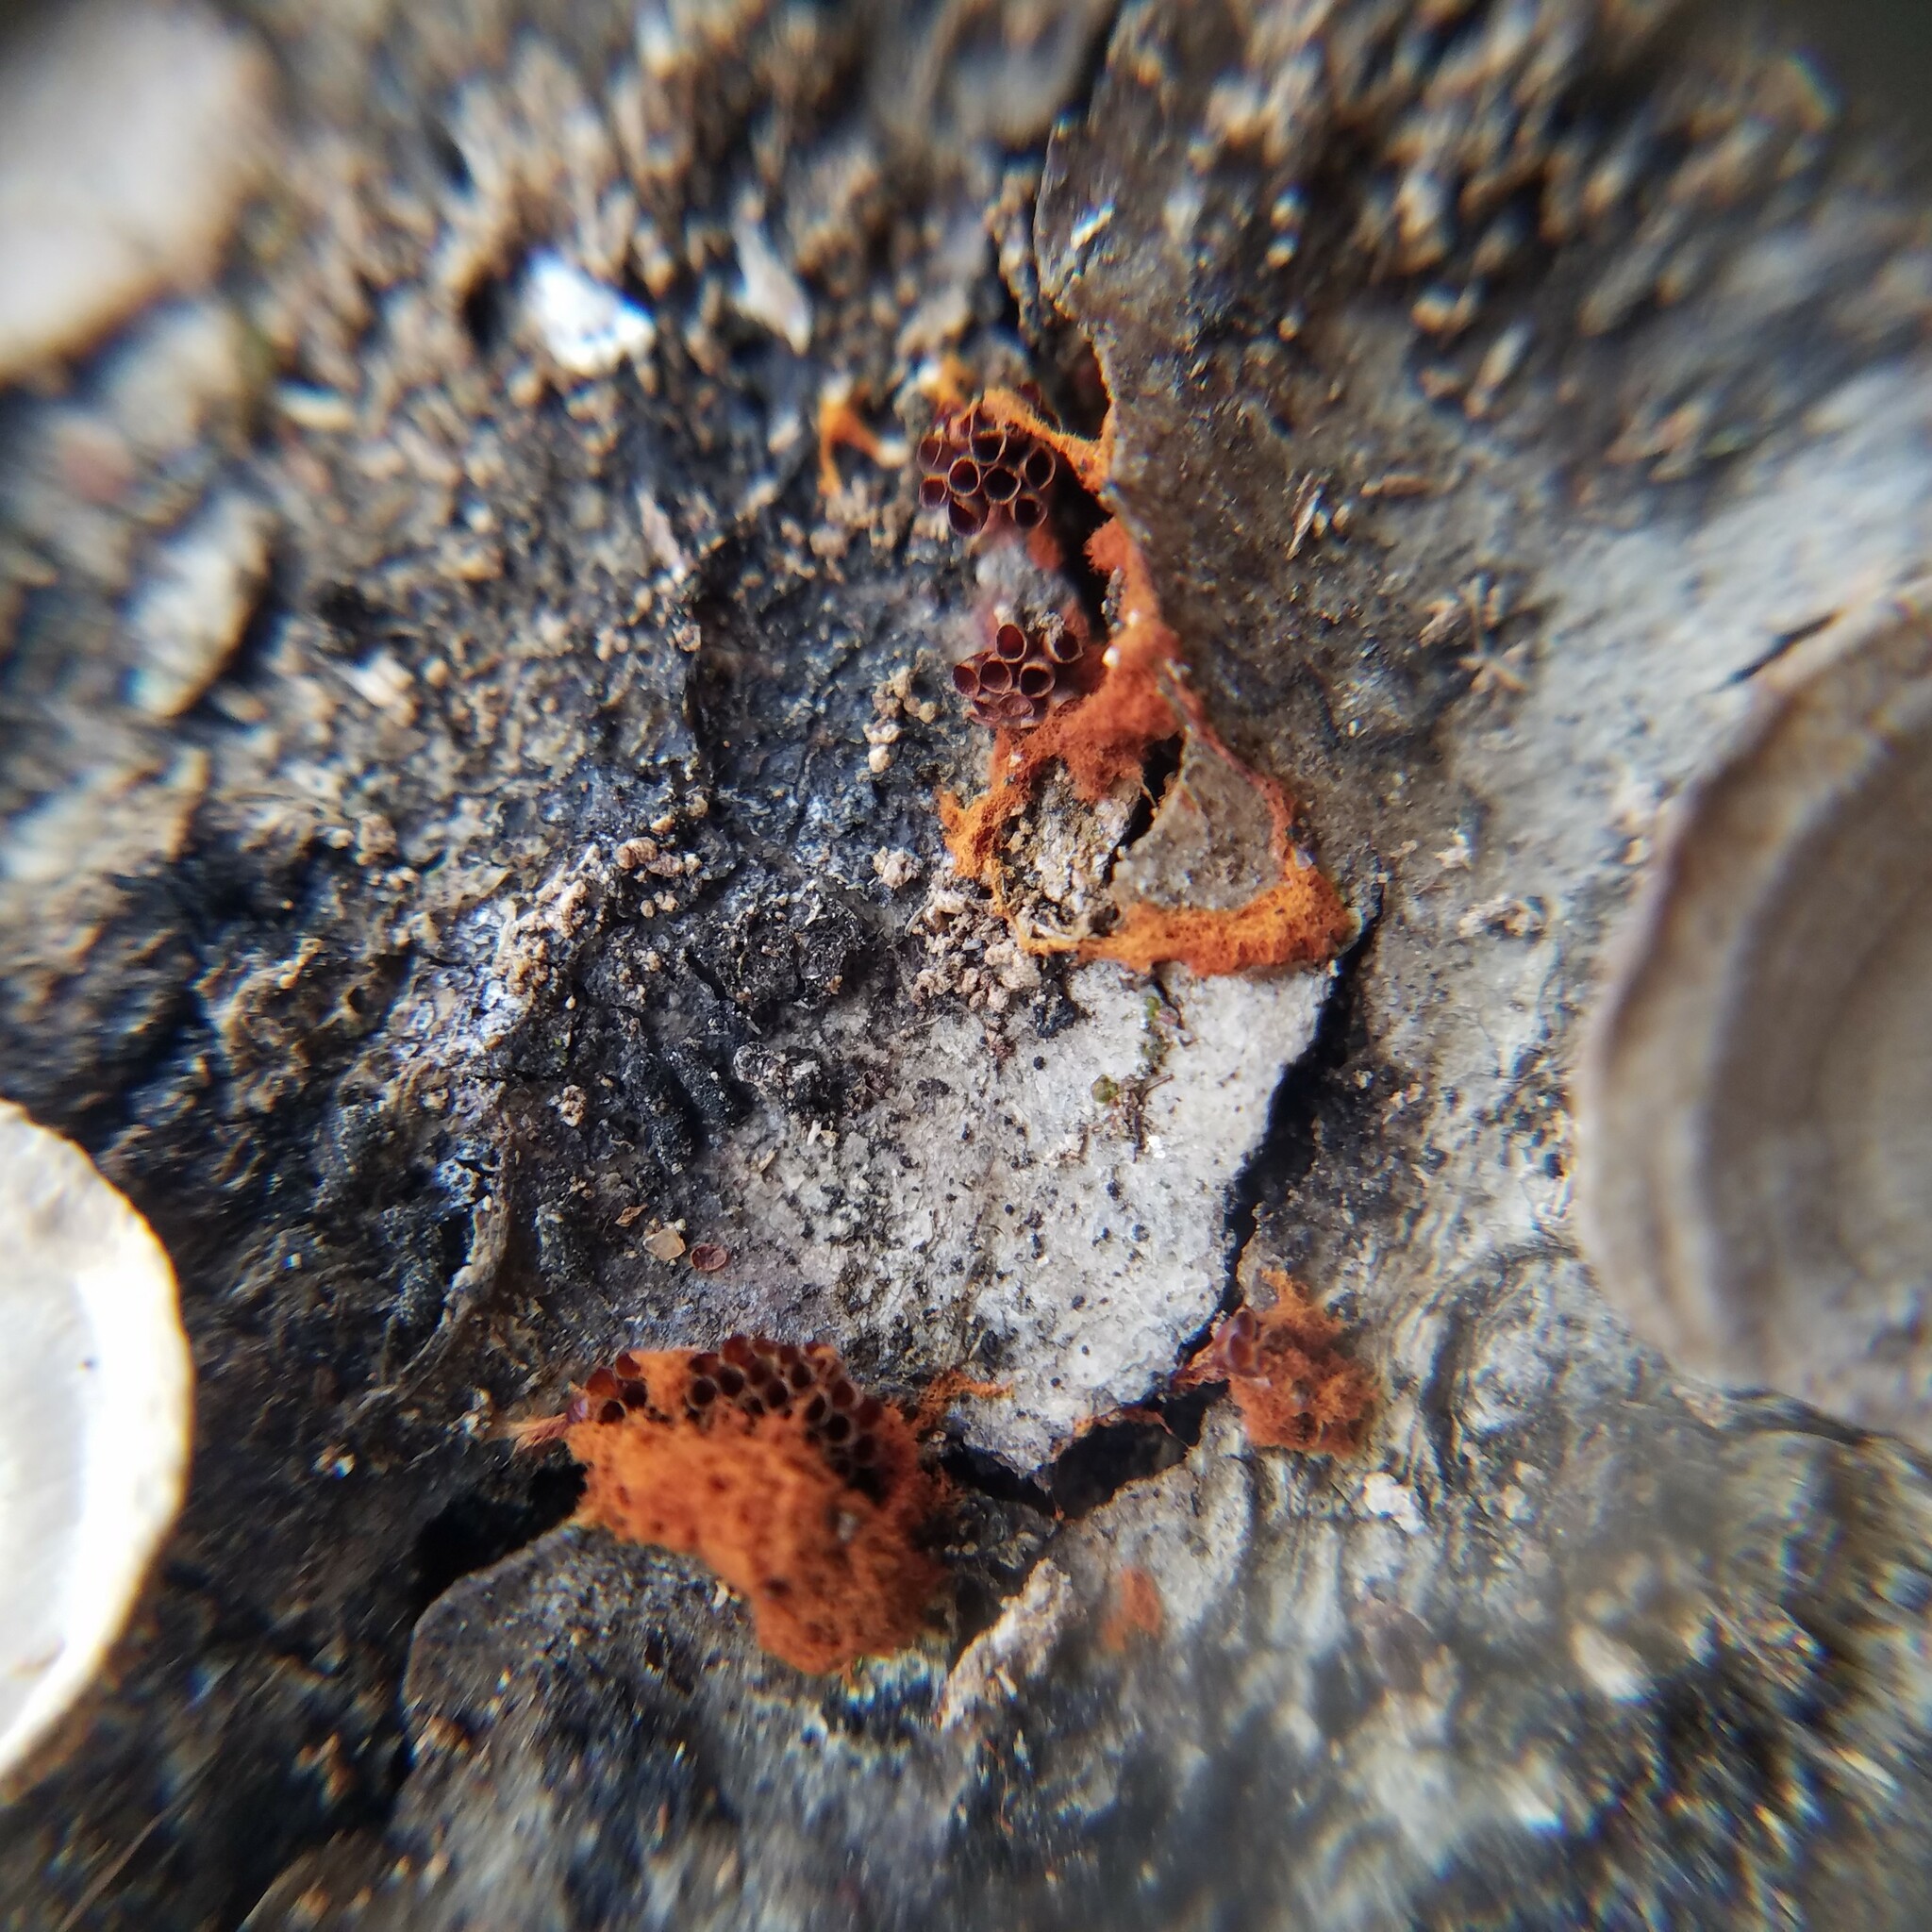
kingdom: Protozoa
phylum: Mycetozoa
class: Myxomycetes
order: Trichiales
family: Trichiaceae
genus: Metatrichia
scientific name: Metatrichia vesparia
